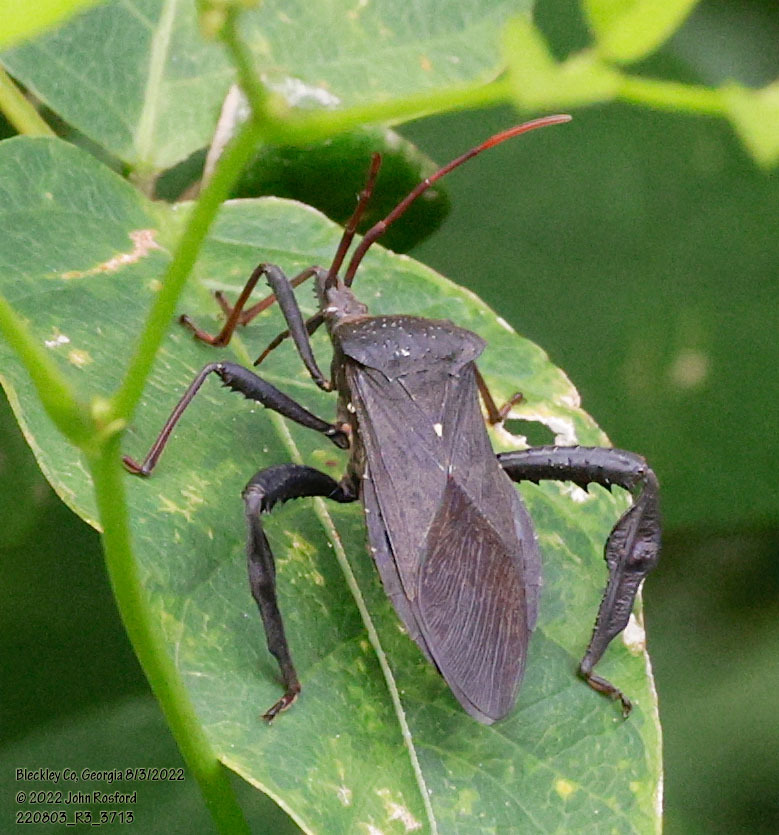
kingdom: Animalia
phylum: Arthropoda
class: Insecta
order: Hemiptera
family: Coreidae
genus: Acanthocephala
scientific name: Acanthocephala femorata
